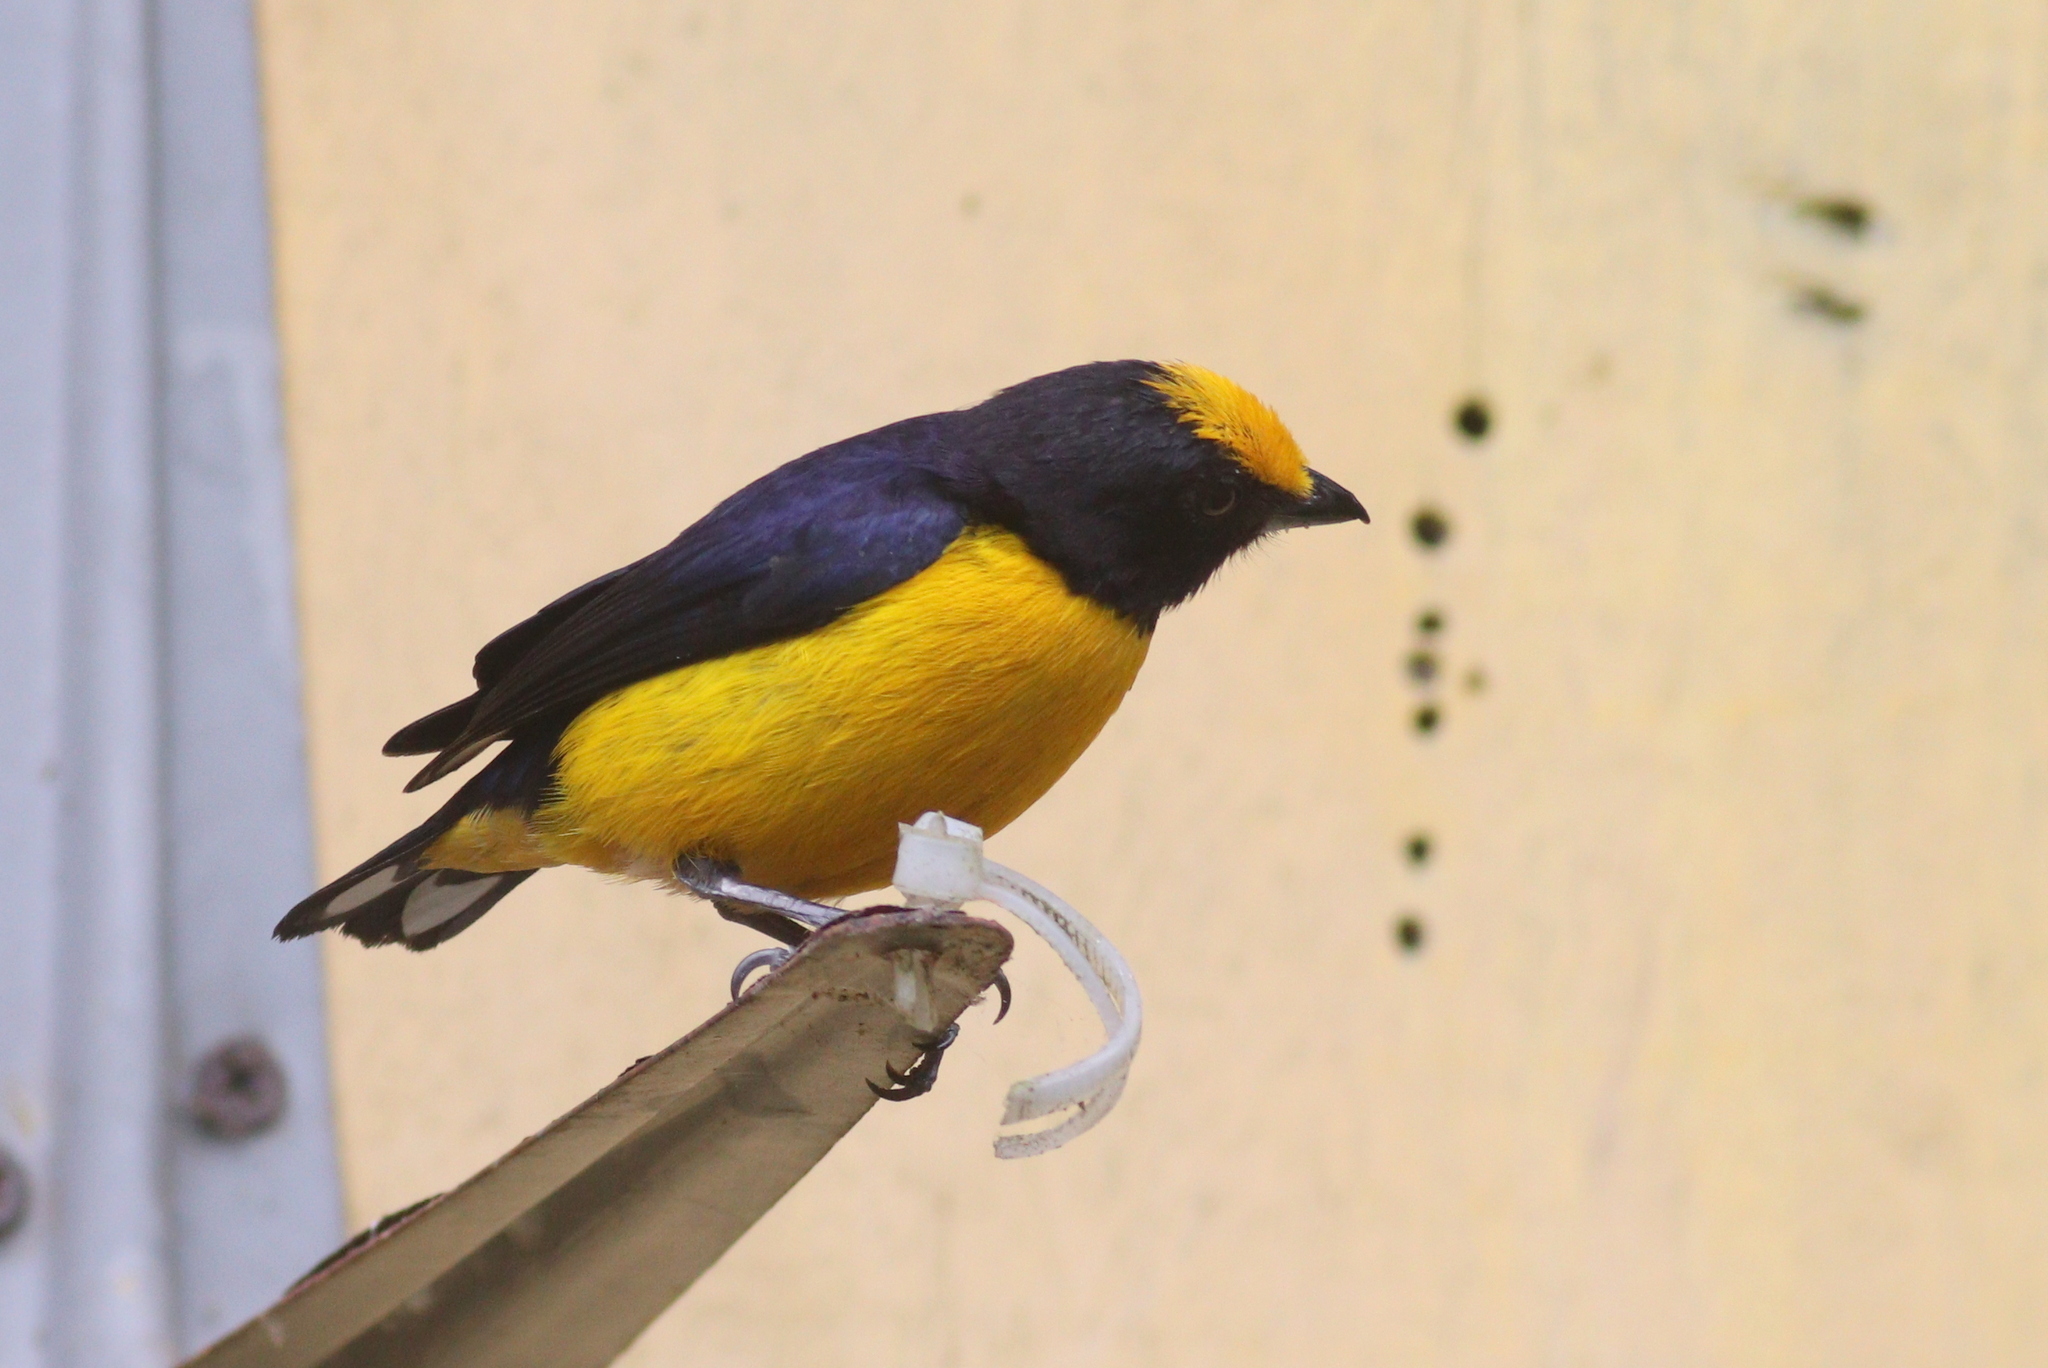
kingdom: Animalia
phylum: Chordata
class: Aves
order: Passeriformes
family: Fringillidae
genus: Euphonia
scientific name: Euphonia xanthogaster
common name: Orange-bellied euphonia
